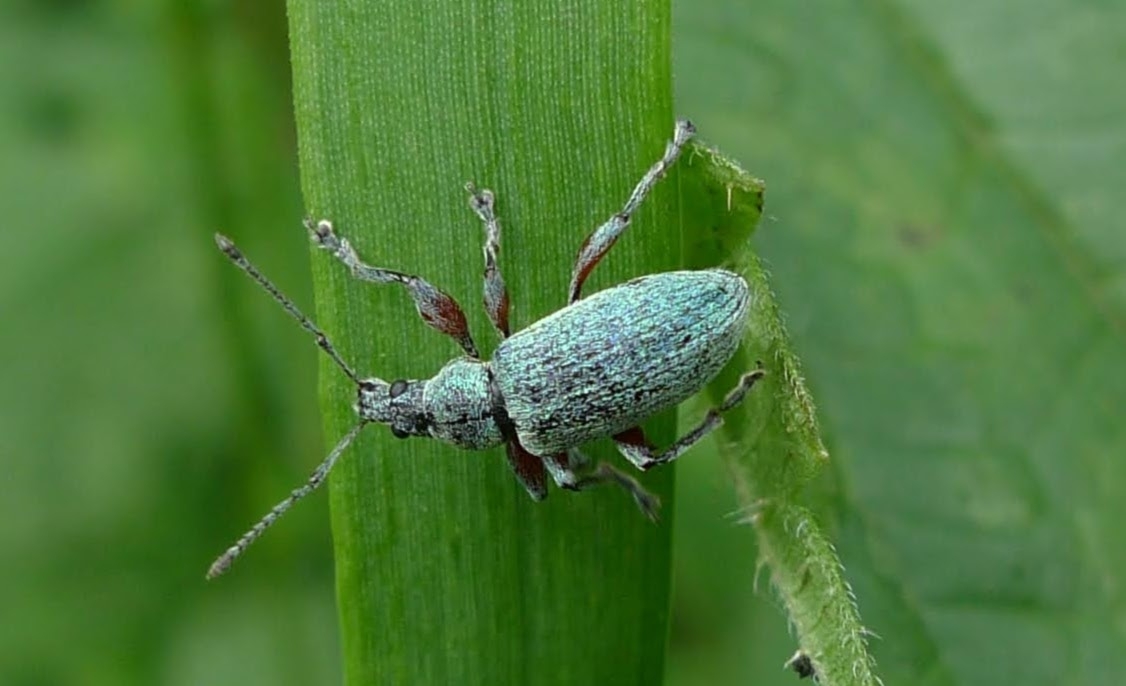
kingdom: Animalia
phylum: Arthropoda
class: Insecta
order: Coleoptera
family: Curculionidae
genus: Phyllobius
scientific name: Phyllobius pomaceus
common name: Green nettle weevil
